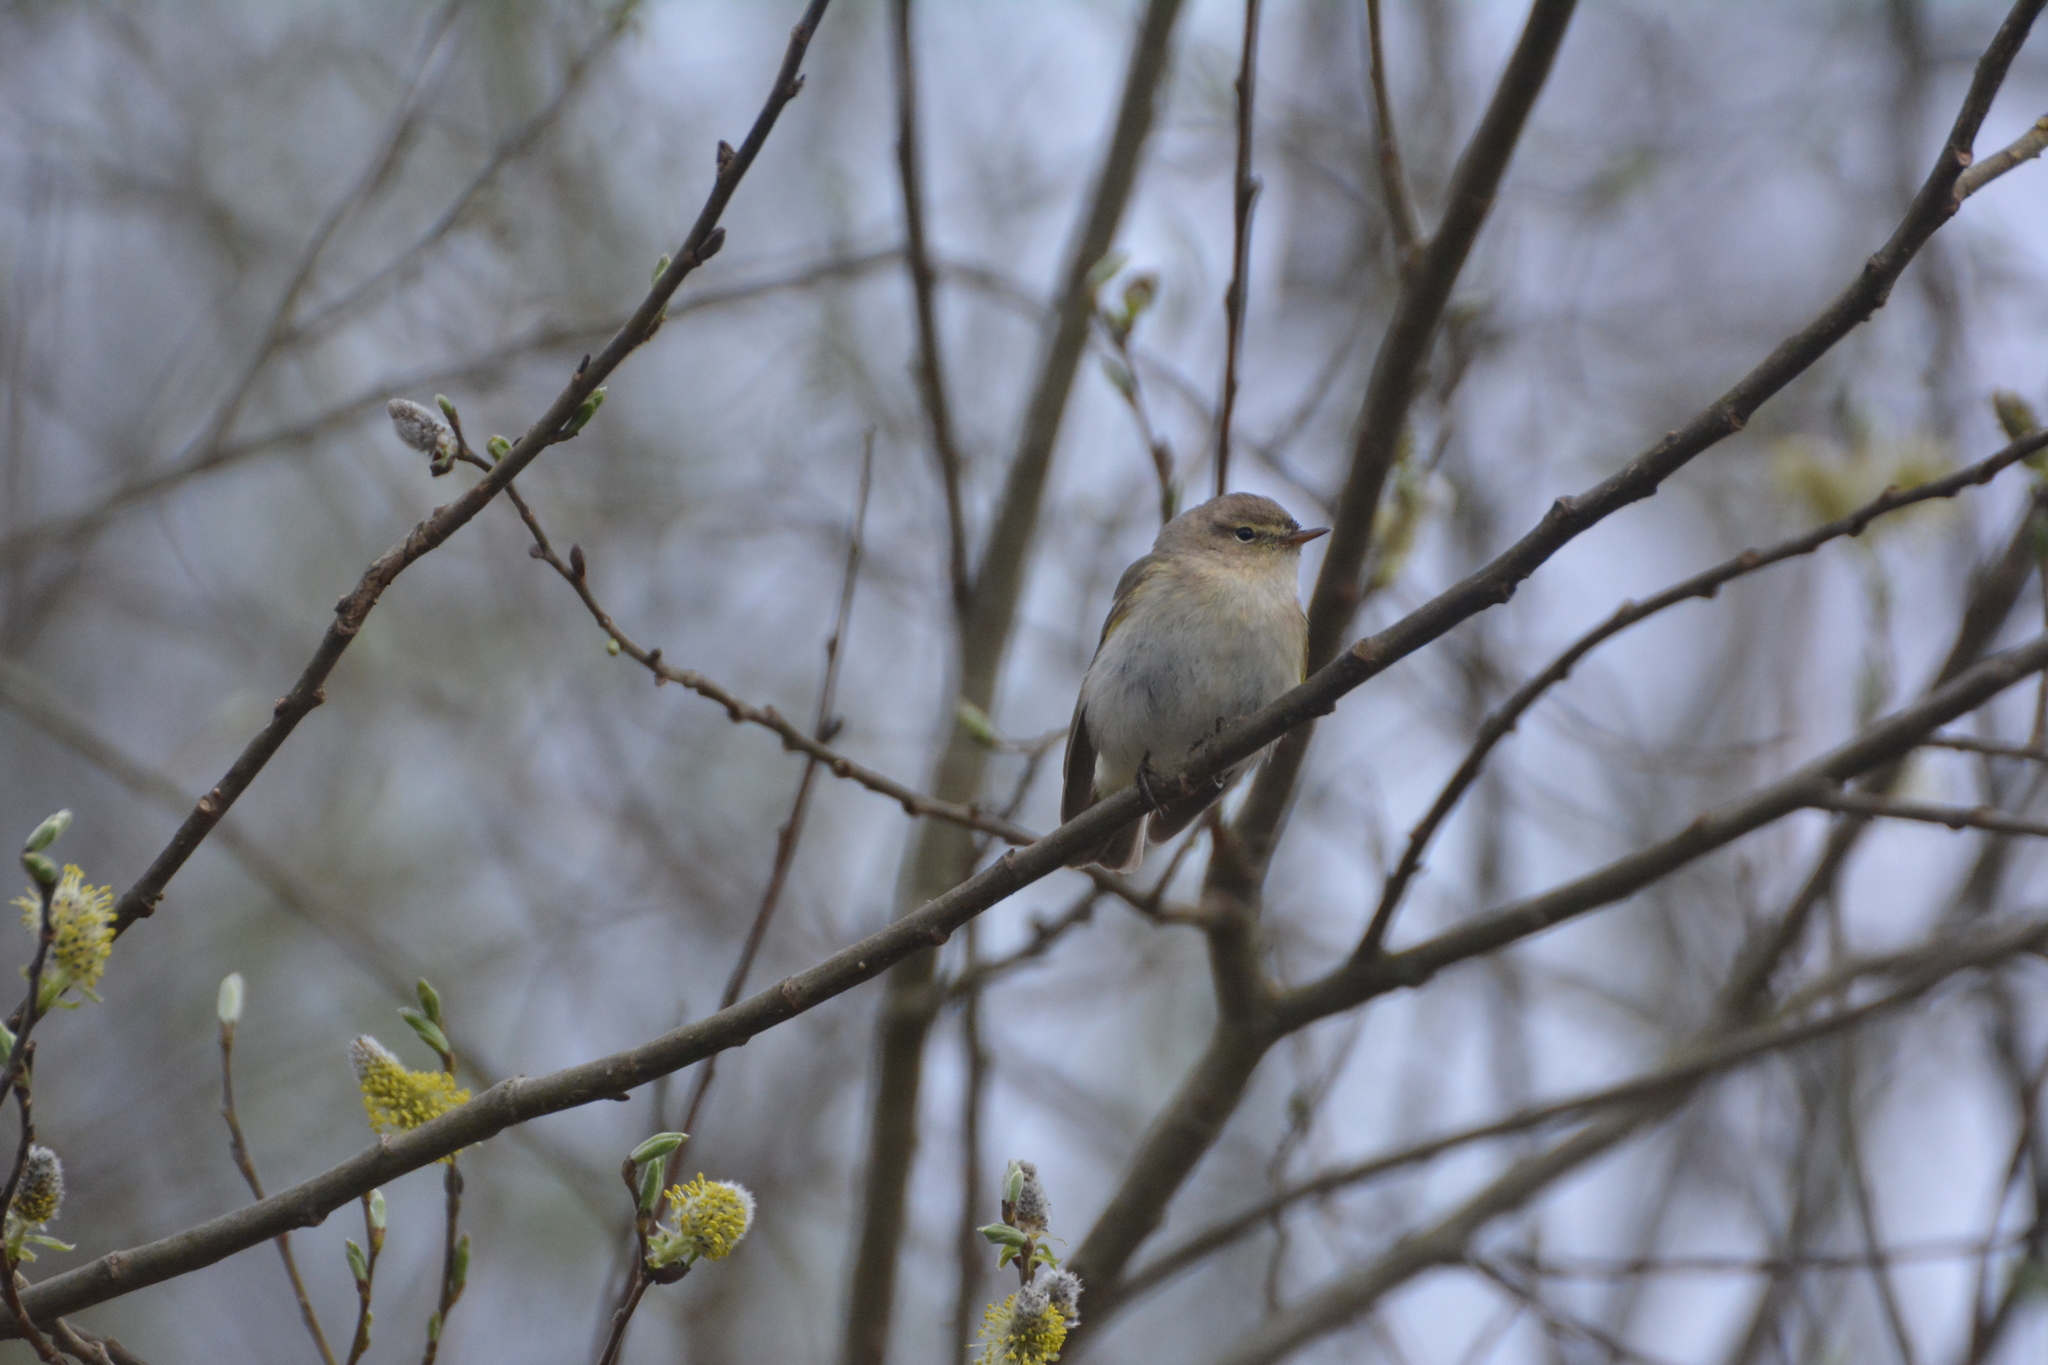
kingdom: Animalia
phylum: Chordata
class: Aves
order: Passeriformes
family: Phylloscopidae
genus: Phylloscopus
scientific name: Phylloscopus collybita
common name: Common chiffchaff
